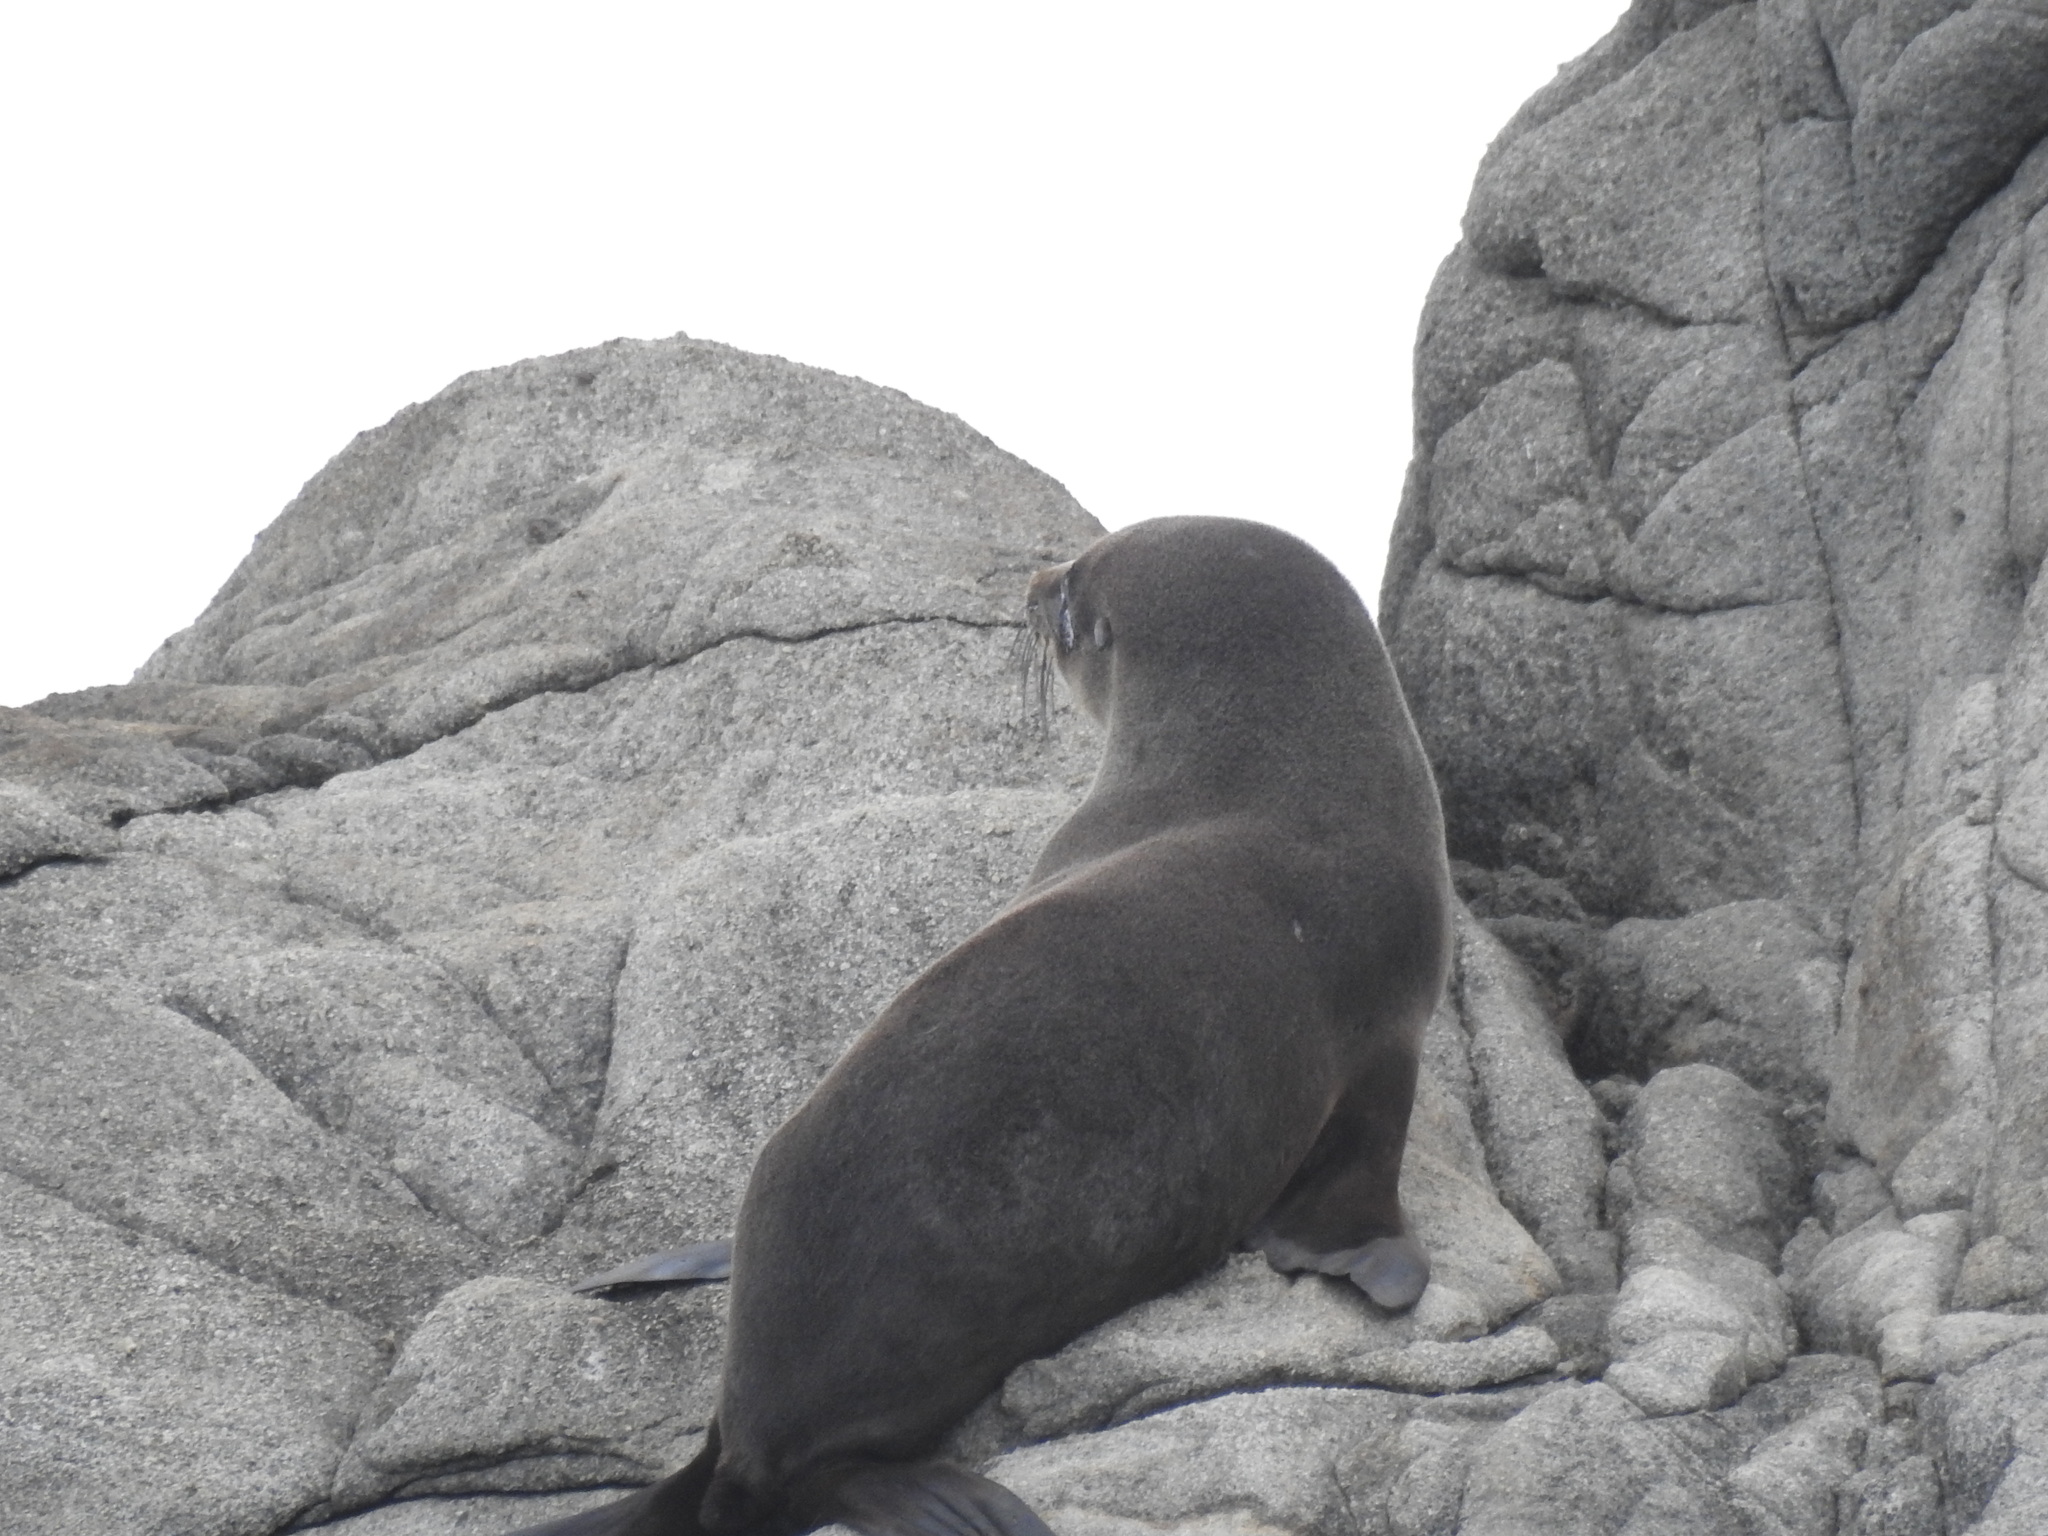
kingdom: Animalia
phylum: Chordata
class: Mammalia
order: Carnivora
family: Otariidae
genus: Arctocephalus
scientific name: Arctocephalus forsteri
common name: New zealand fur seal
